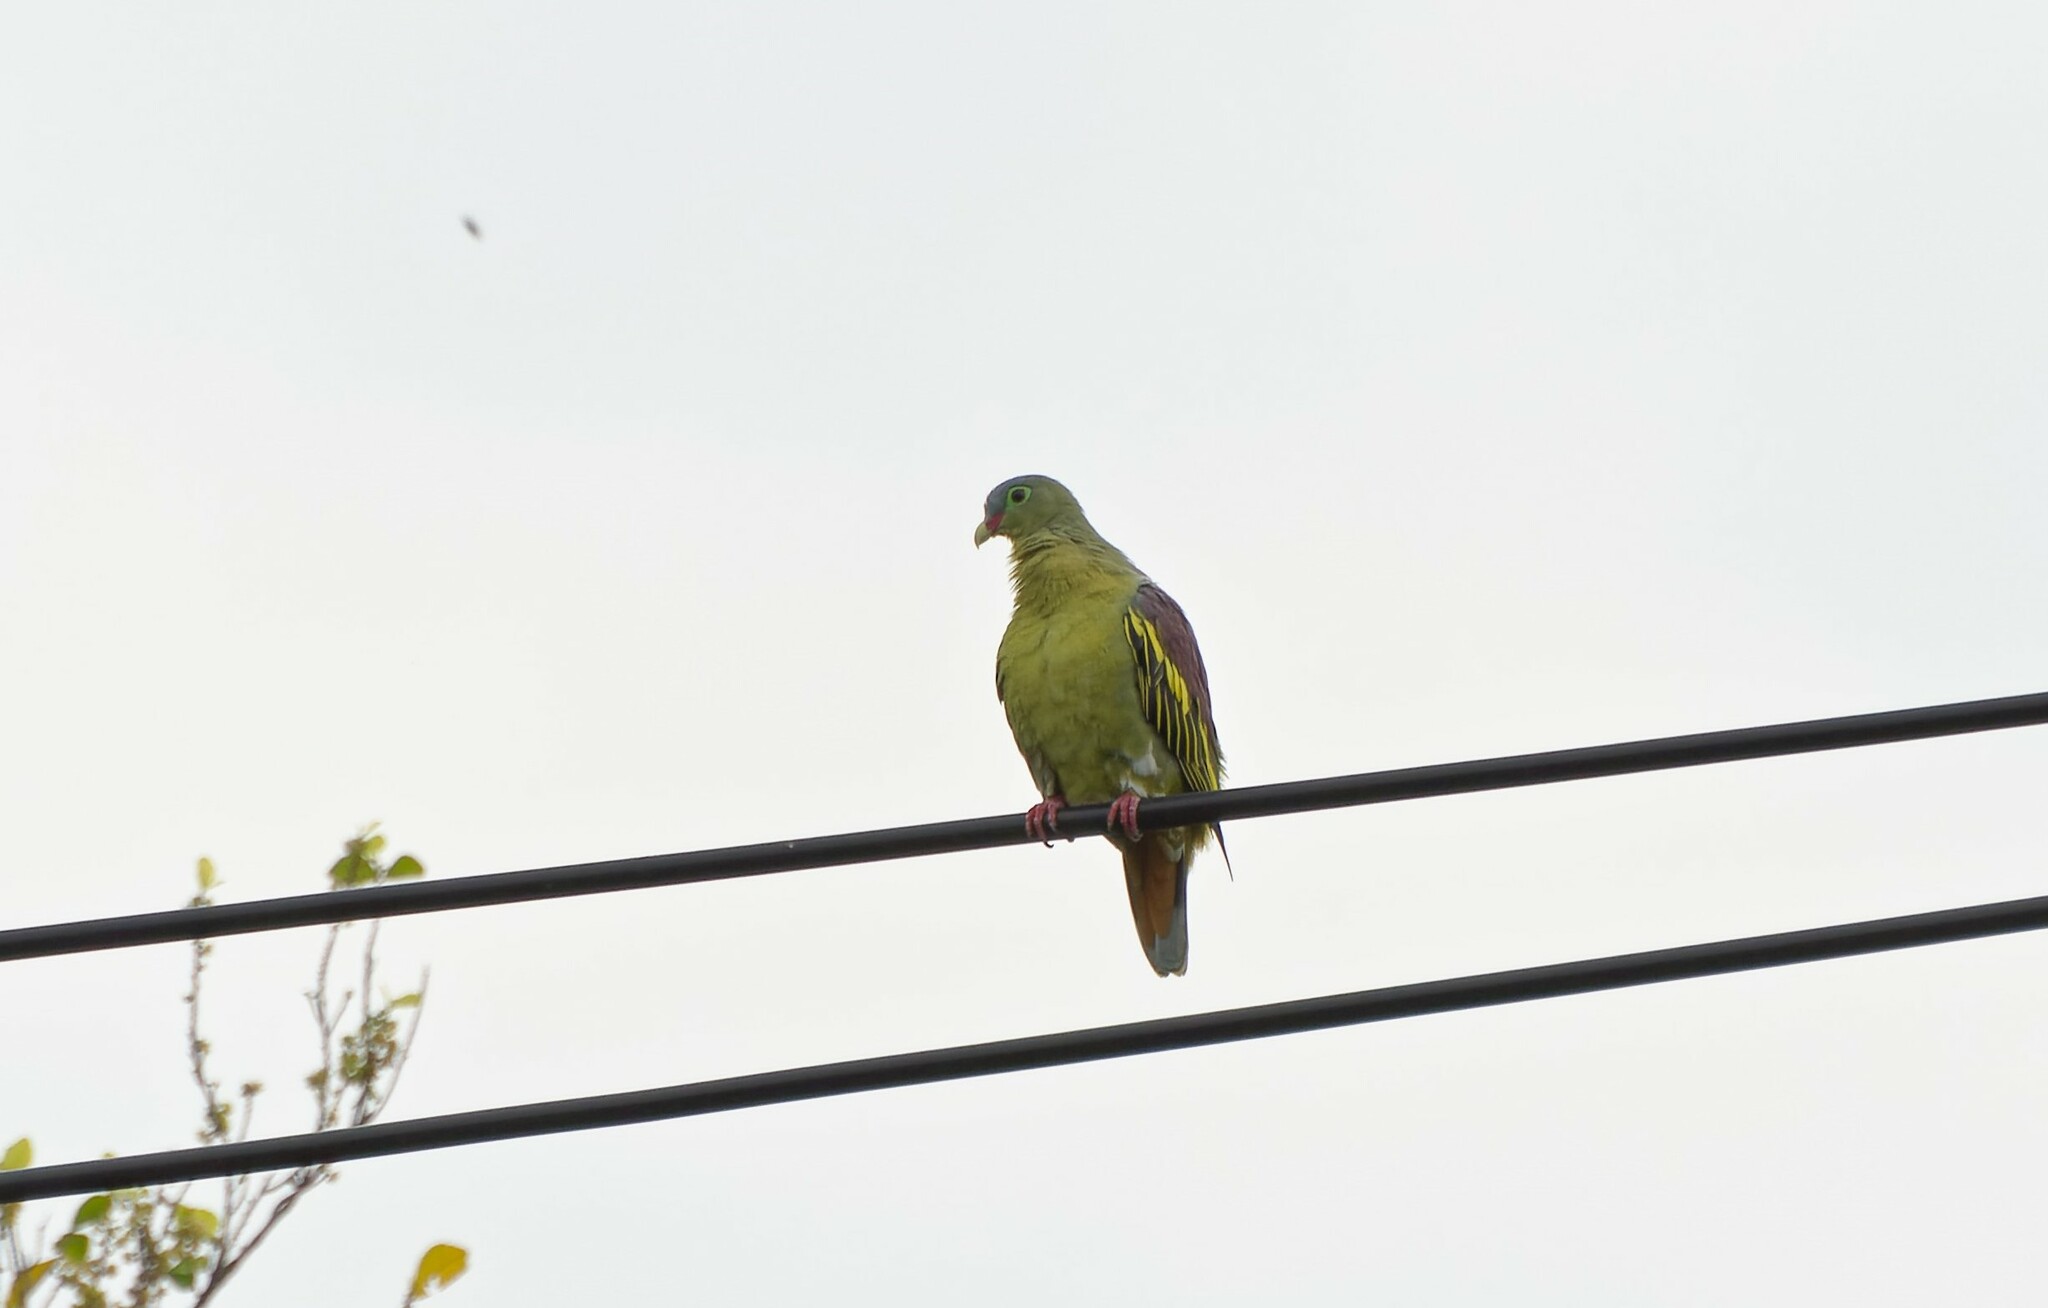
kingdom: Animalia
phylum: Chordata
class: Aves
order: Columbiformes
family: Columbidae
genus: Treron
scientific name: Treron curvirostra
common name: Thick-billed green pigeon
